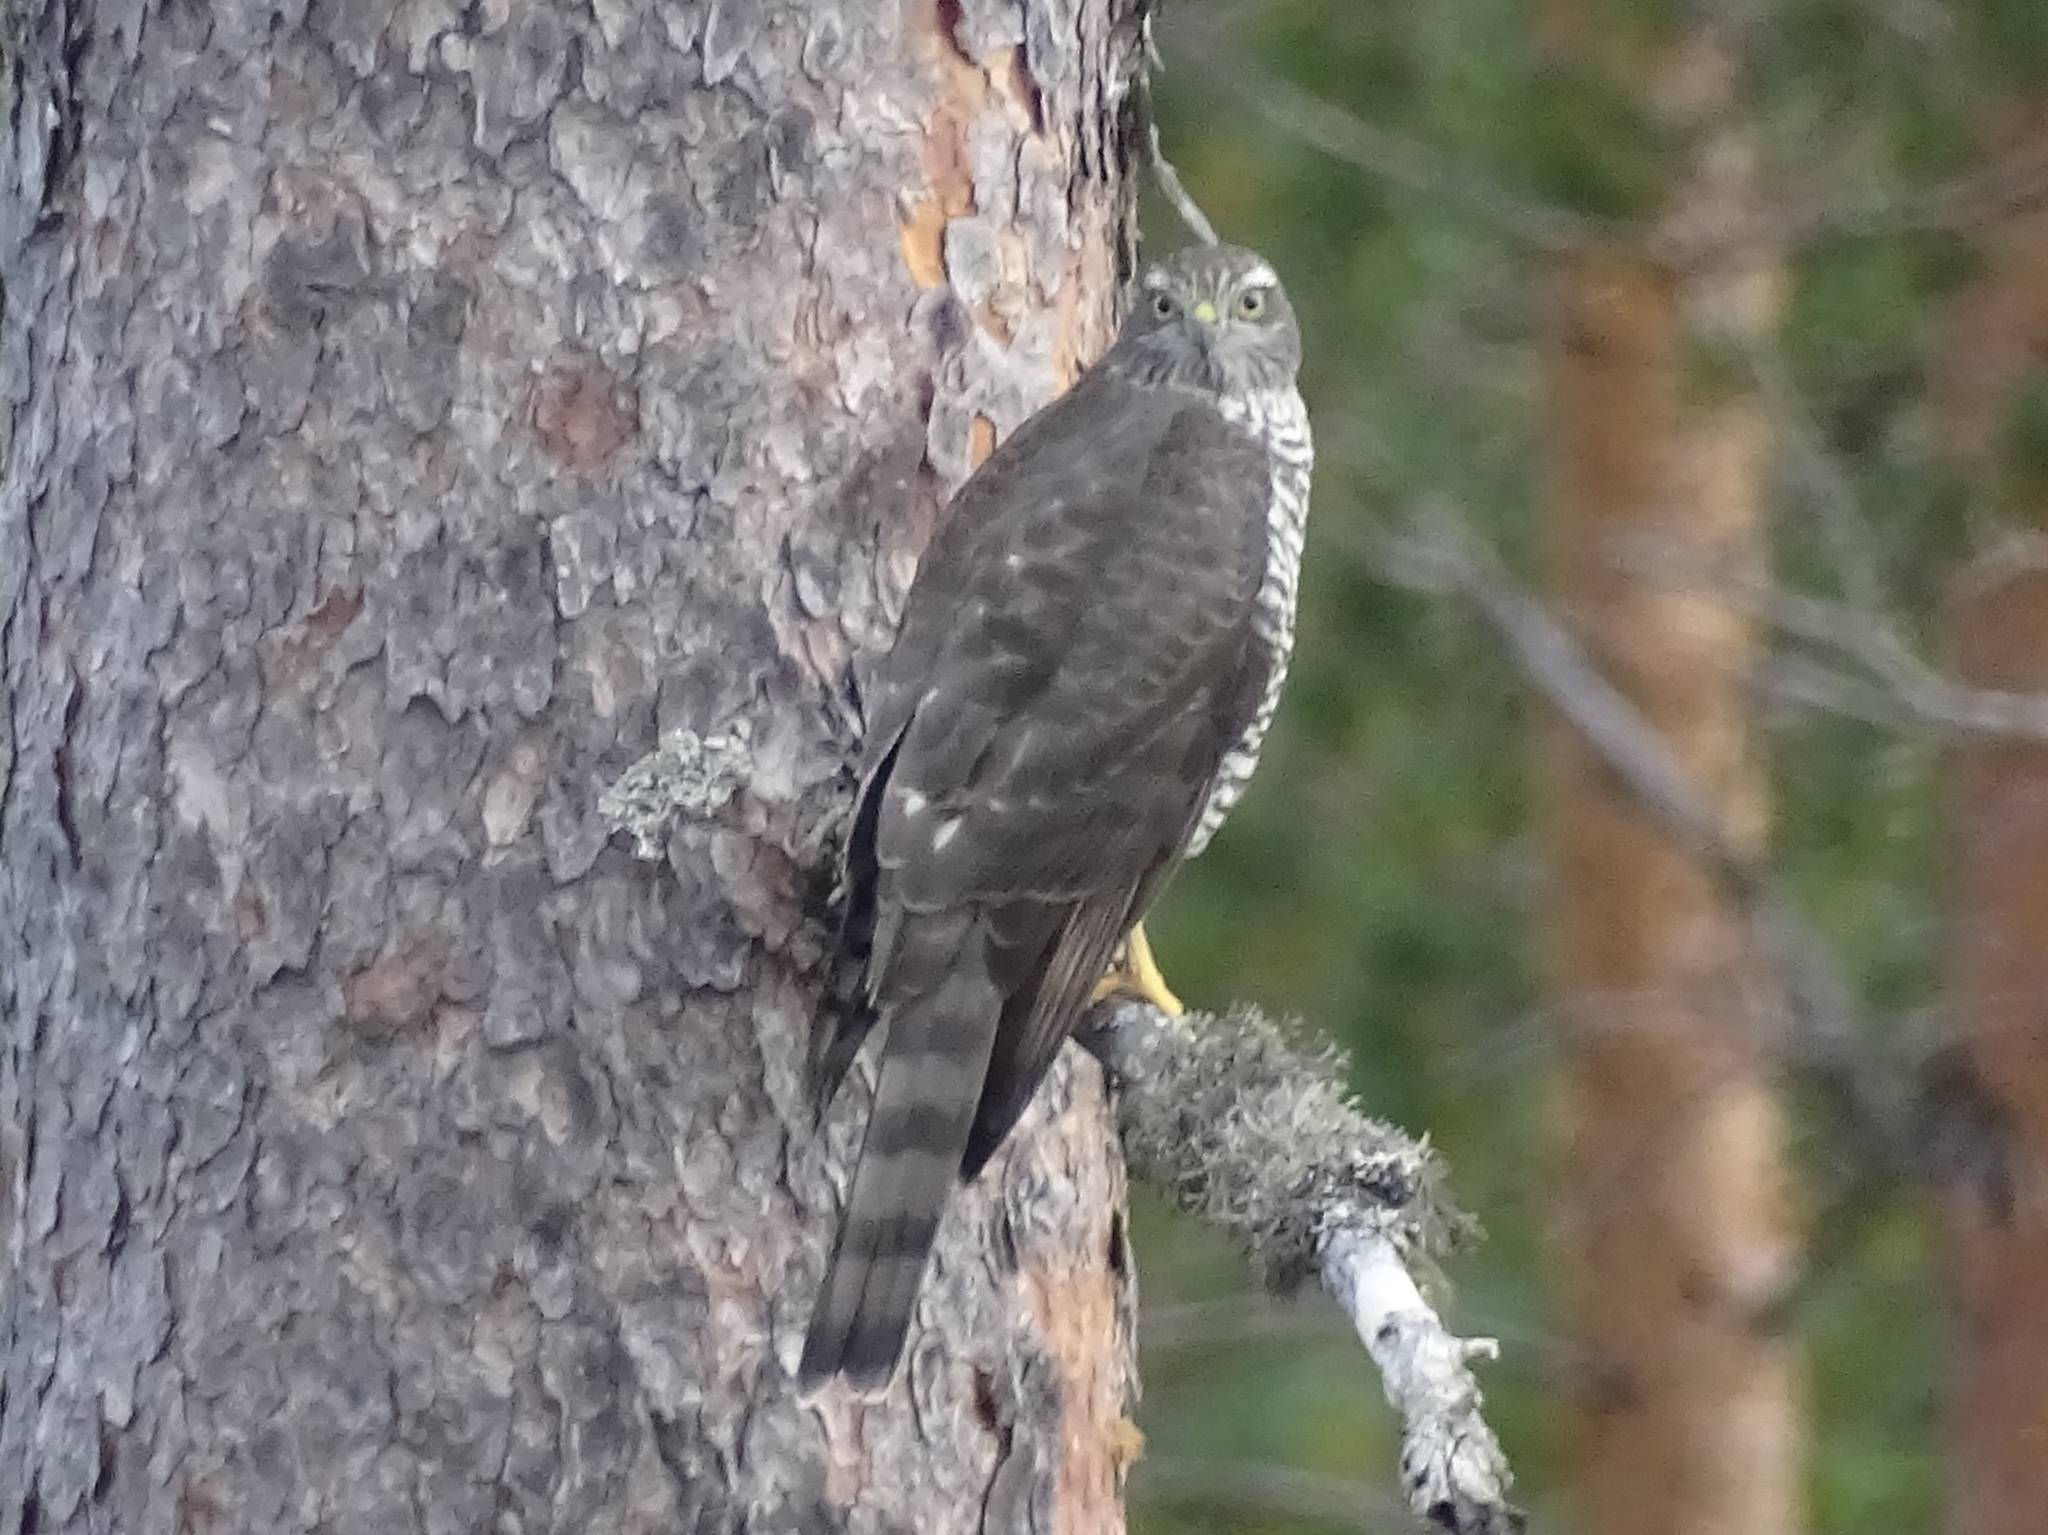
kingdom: Animalia
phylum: Chordata
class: Aves
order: Accipitriformes
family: Accipitridae
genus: Accipiter
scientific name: Accipiter nisus
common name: Eurasian sparrowhawk
